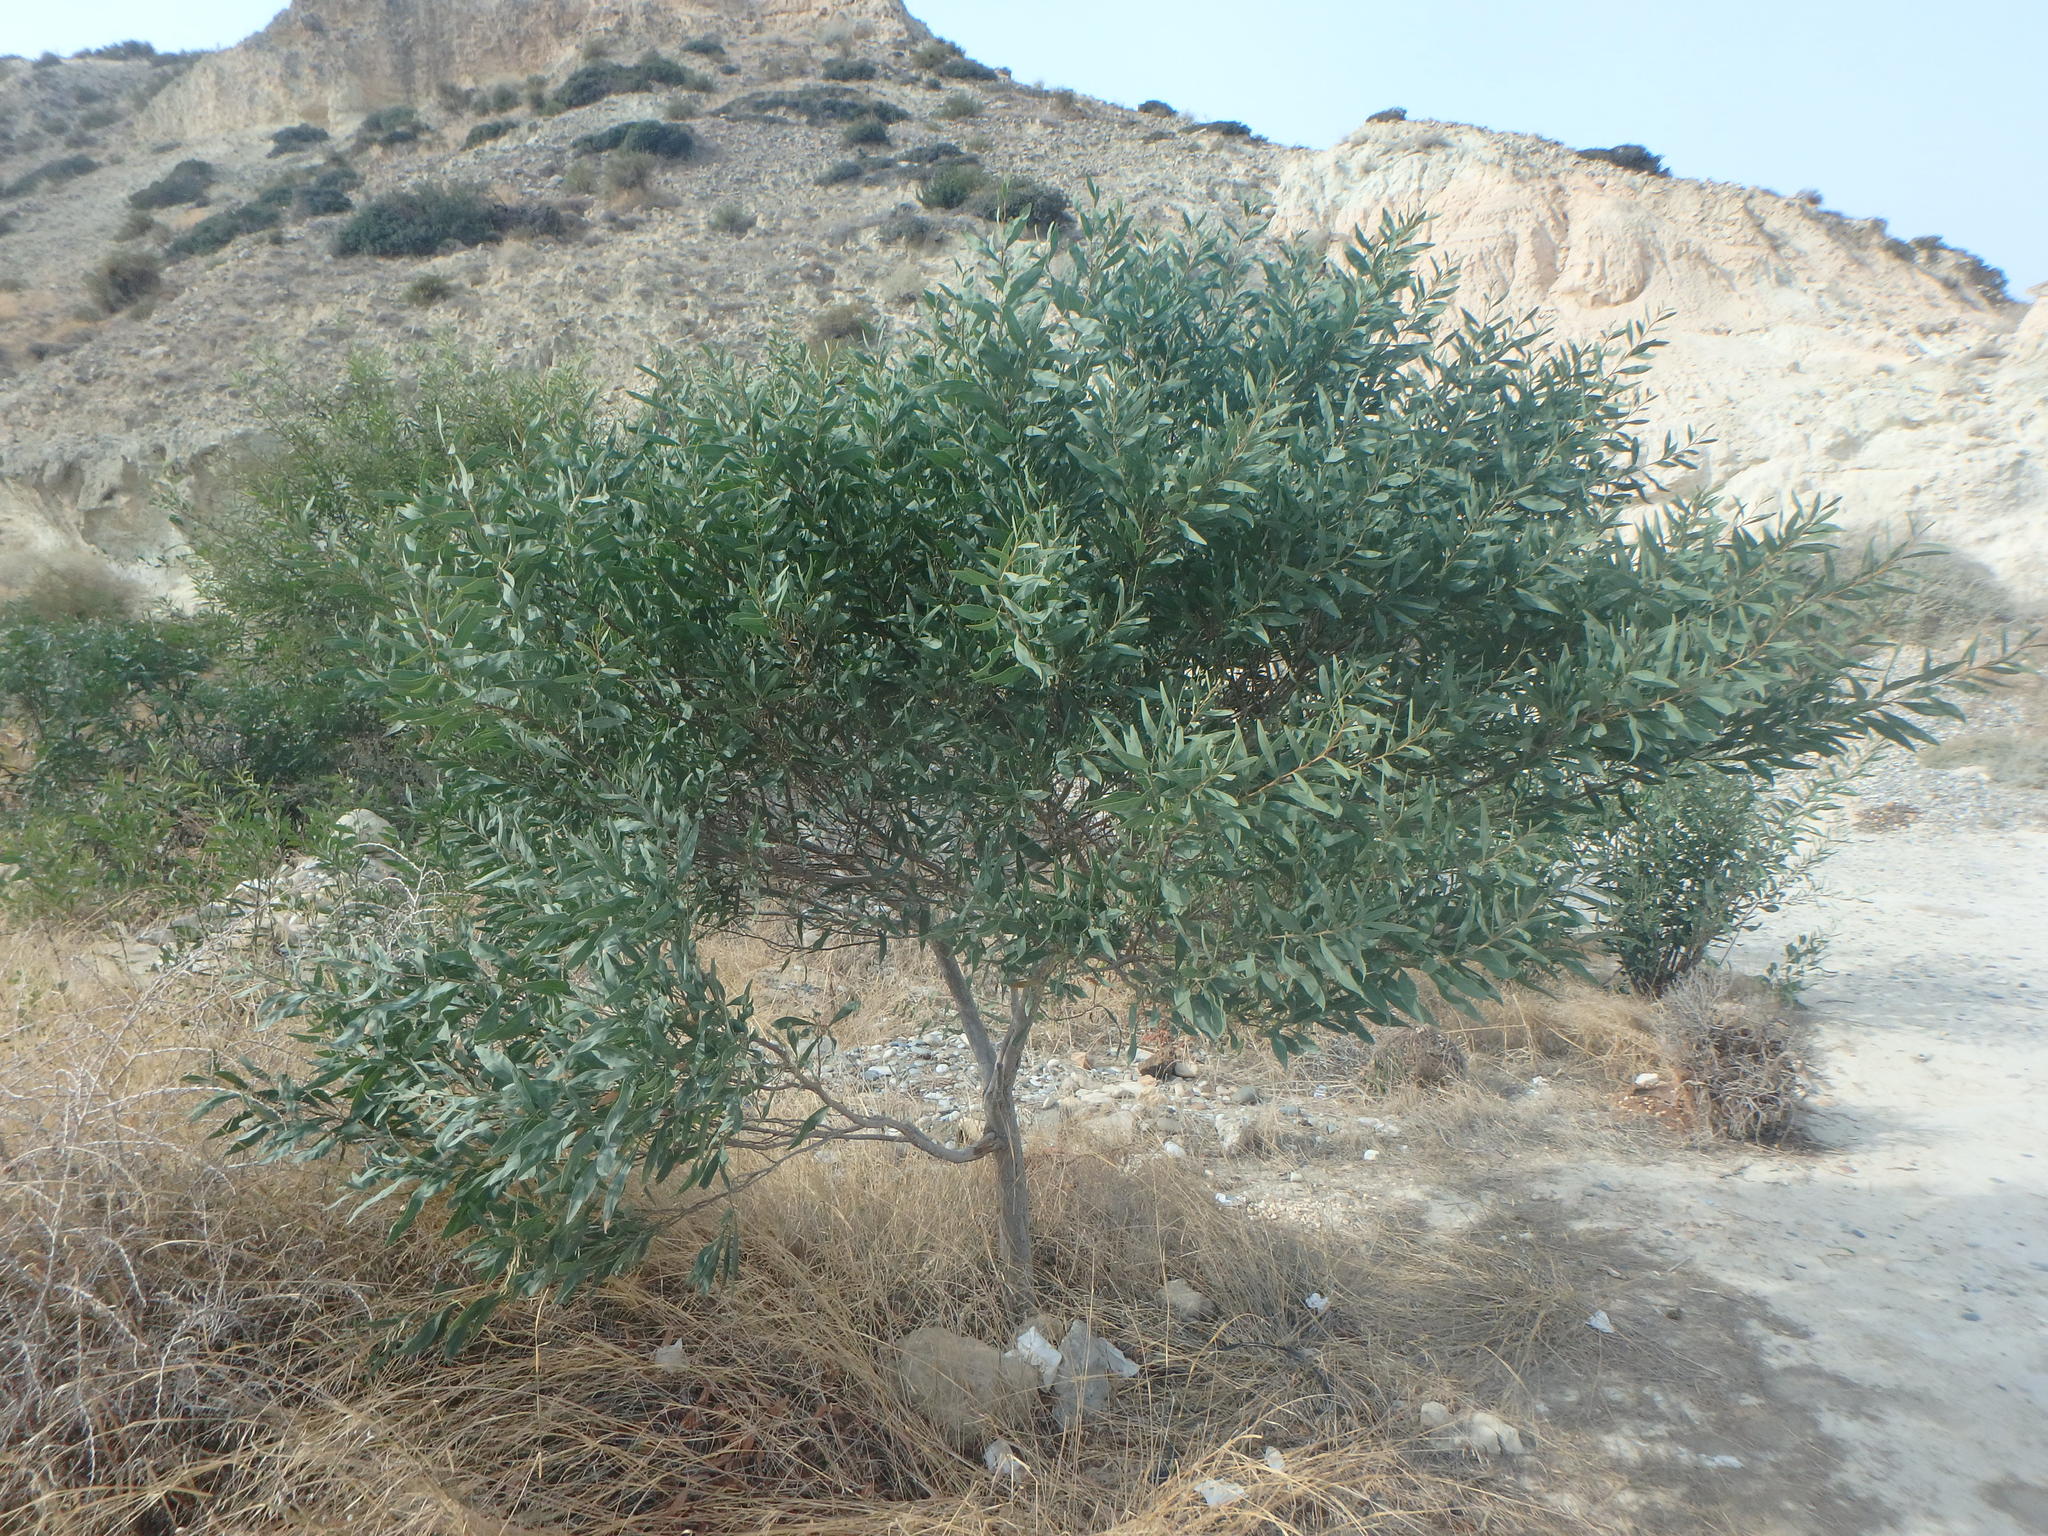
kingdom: Plantae
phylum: Tracheophyta
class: Magnoliopsida
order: Fabales
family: Fabaceae
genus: Acacia
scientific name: Acacia saligna
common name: Orange wattle
